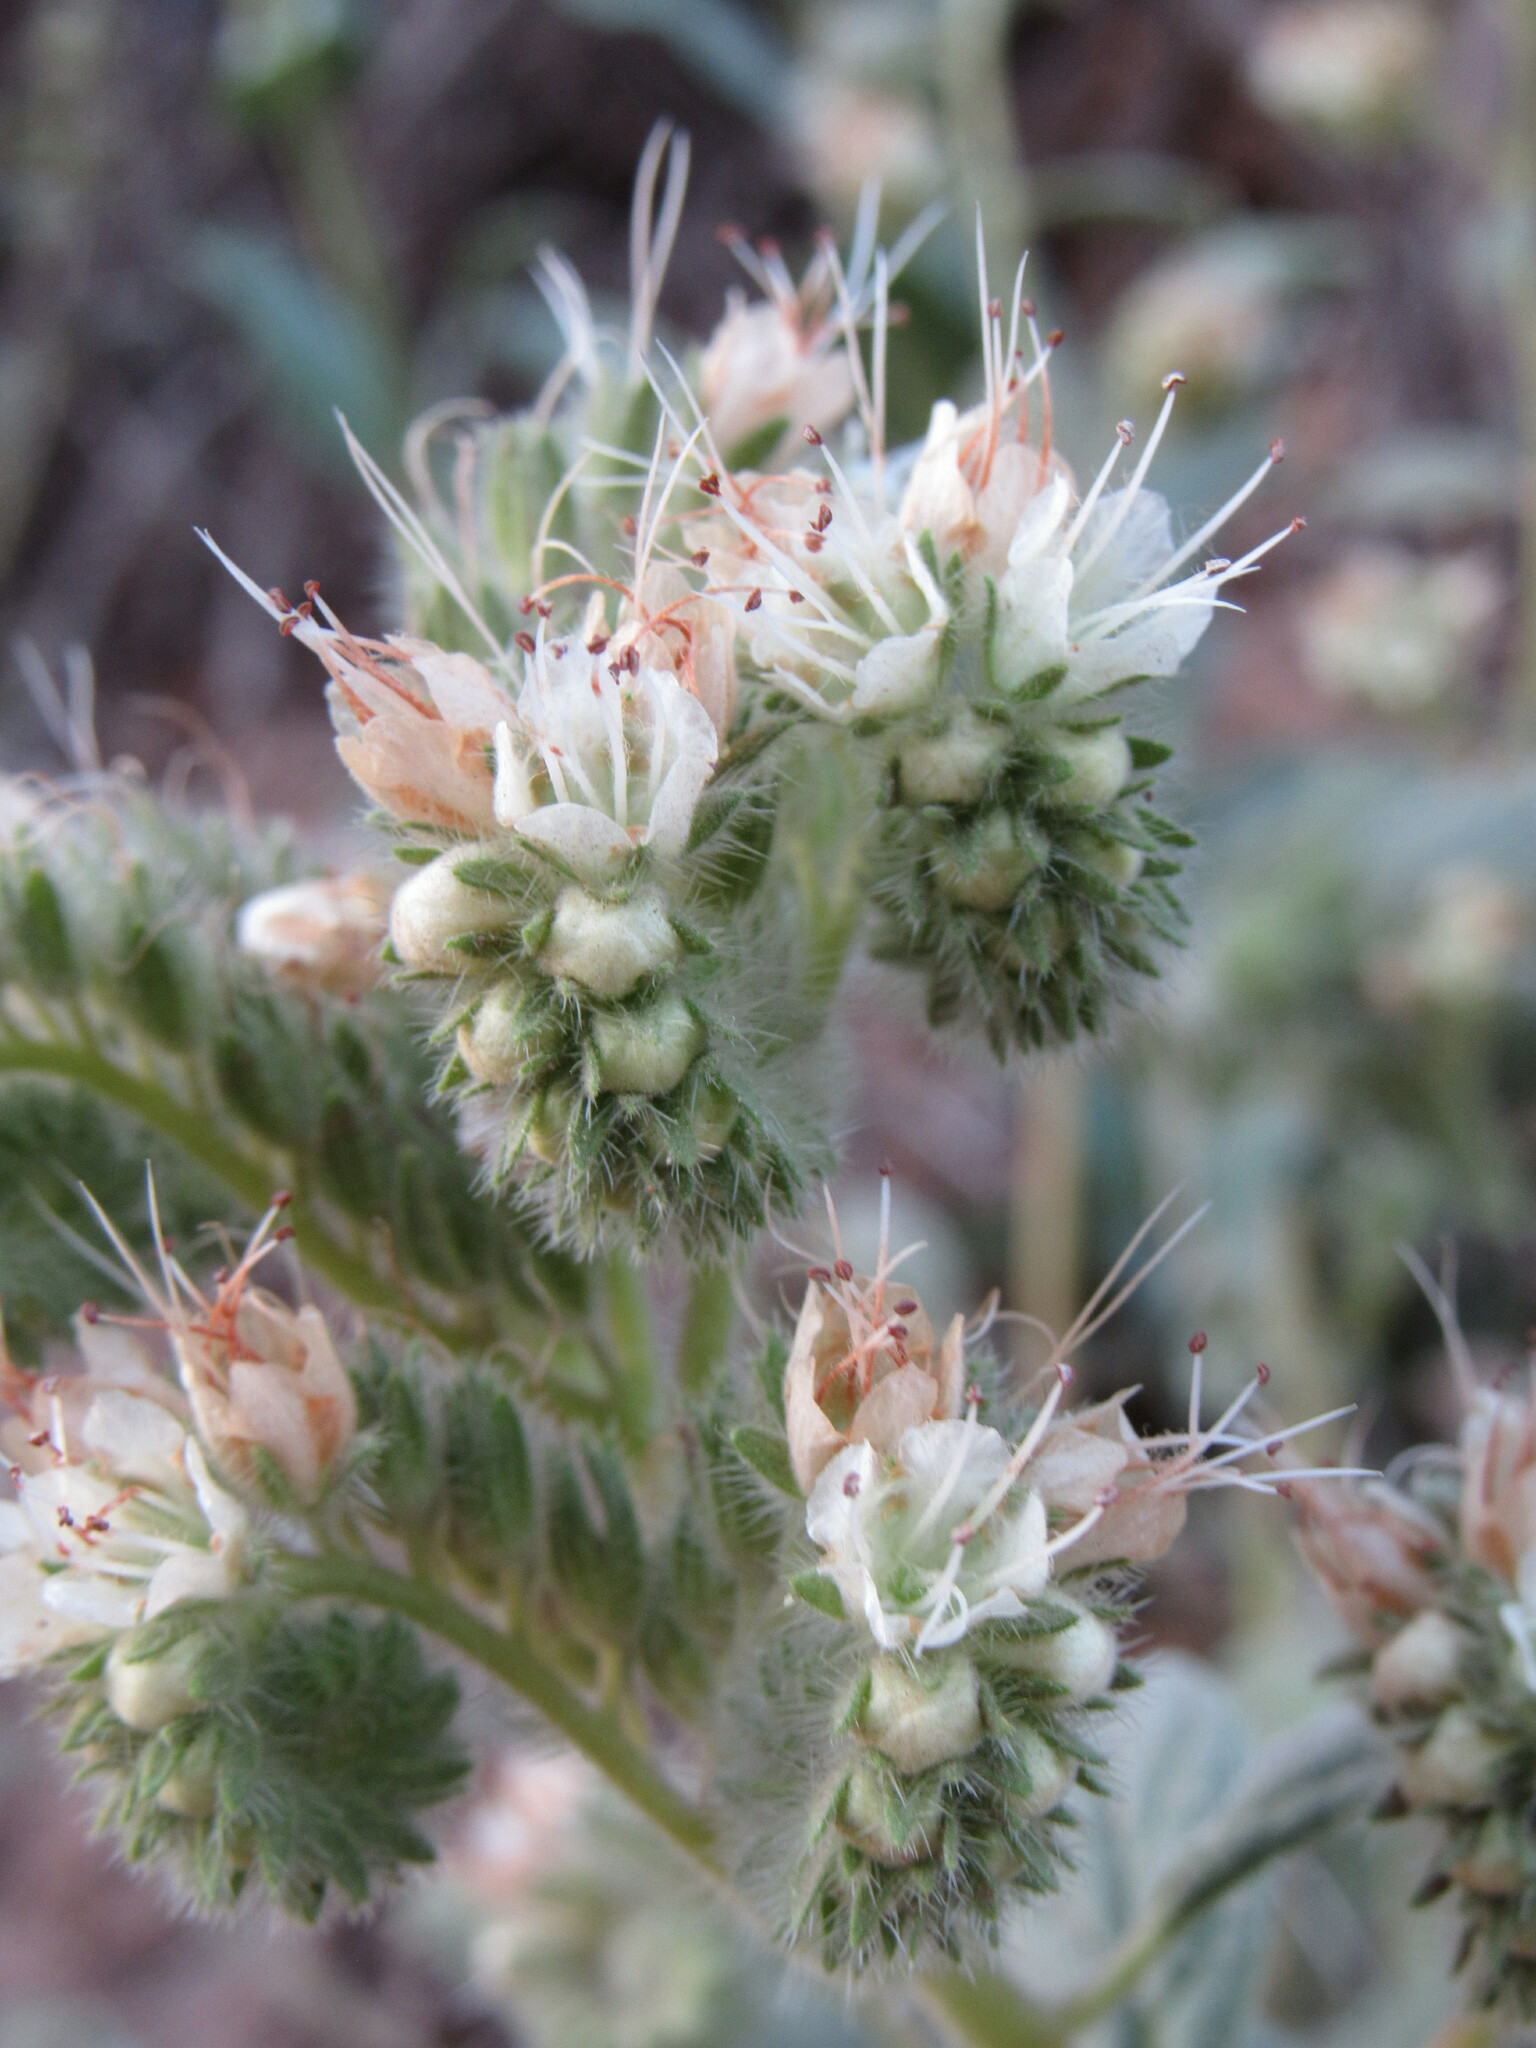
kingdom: Plantae
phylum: Tracheophyta
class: Magnoliopsida
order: Boraginales
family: Hydrophyllaceae
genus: Phacelia
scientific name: Phacelia hastata
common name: Silver-leaved phacelia
